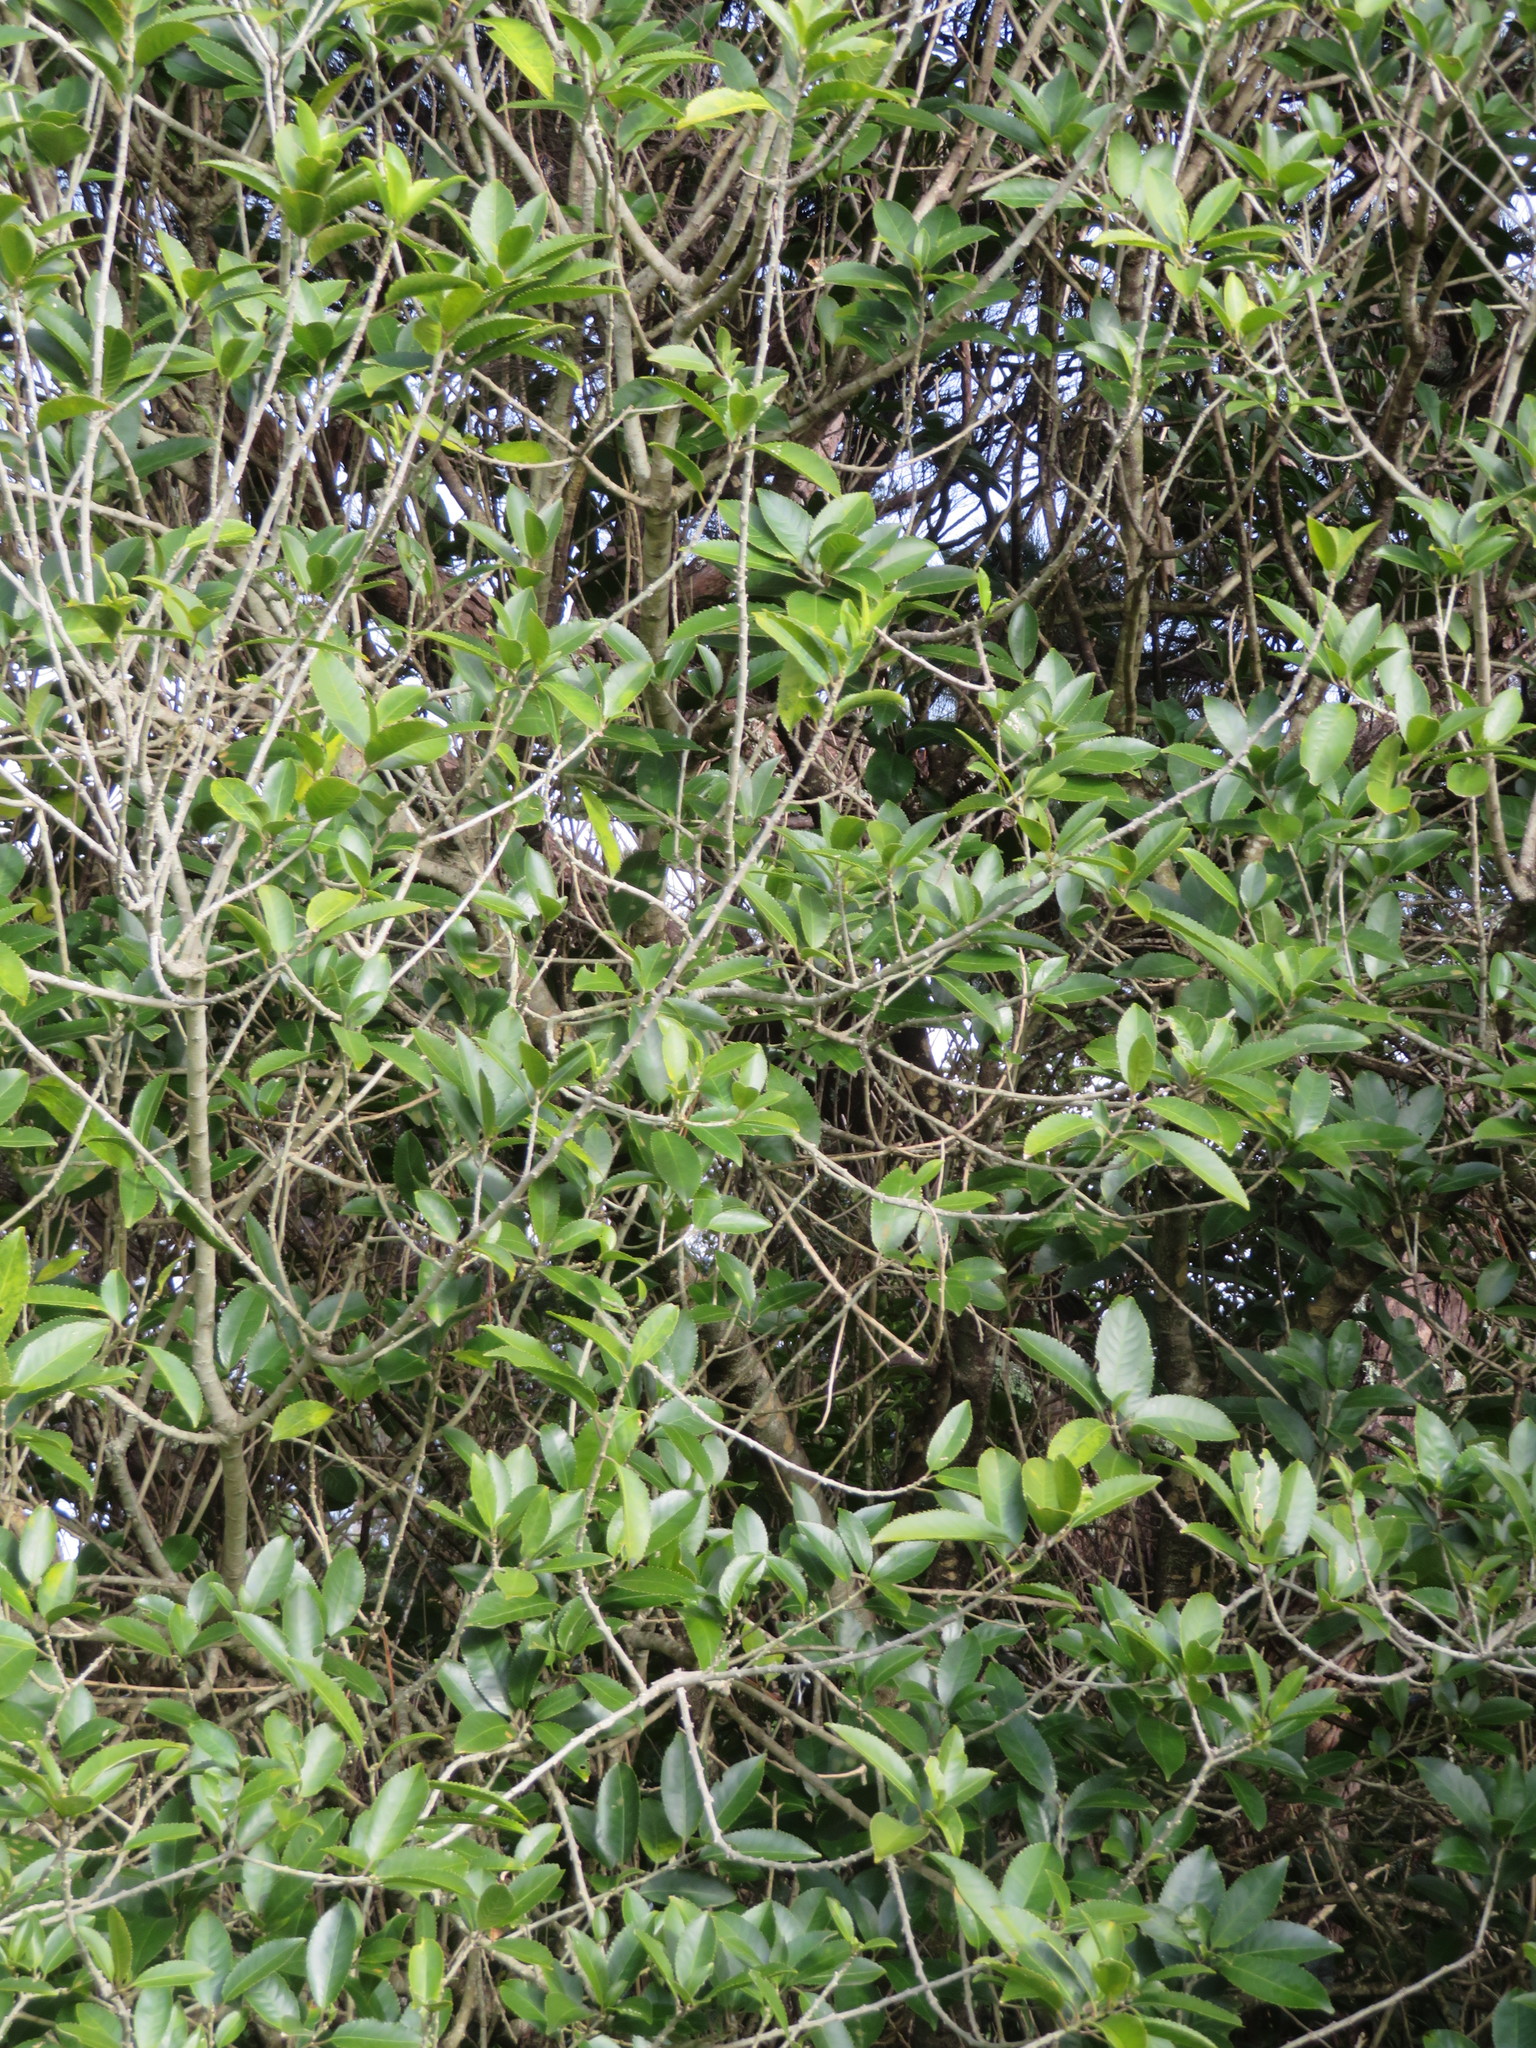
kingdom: Plantae
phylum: Tracheophyta
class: Magnoliopsida
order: Malpighiales
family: Violaceae
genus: Melicytus
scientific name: Melicytus ramiflorus
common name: Mahoe
